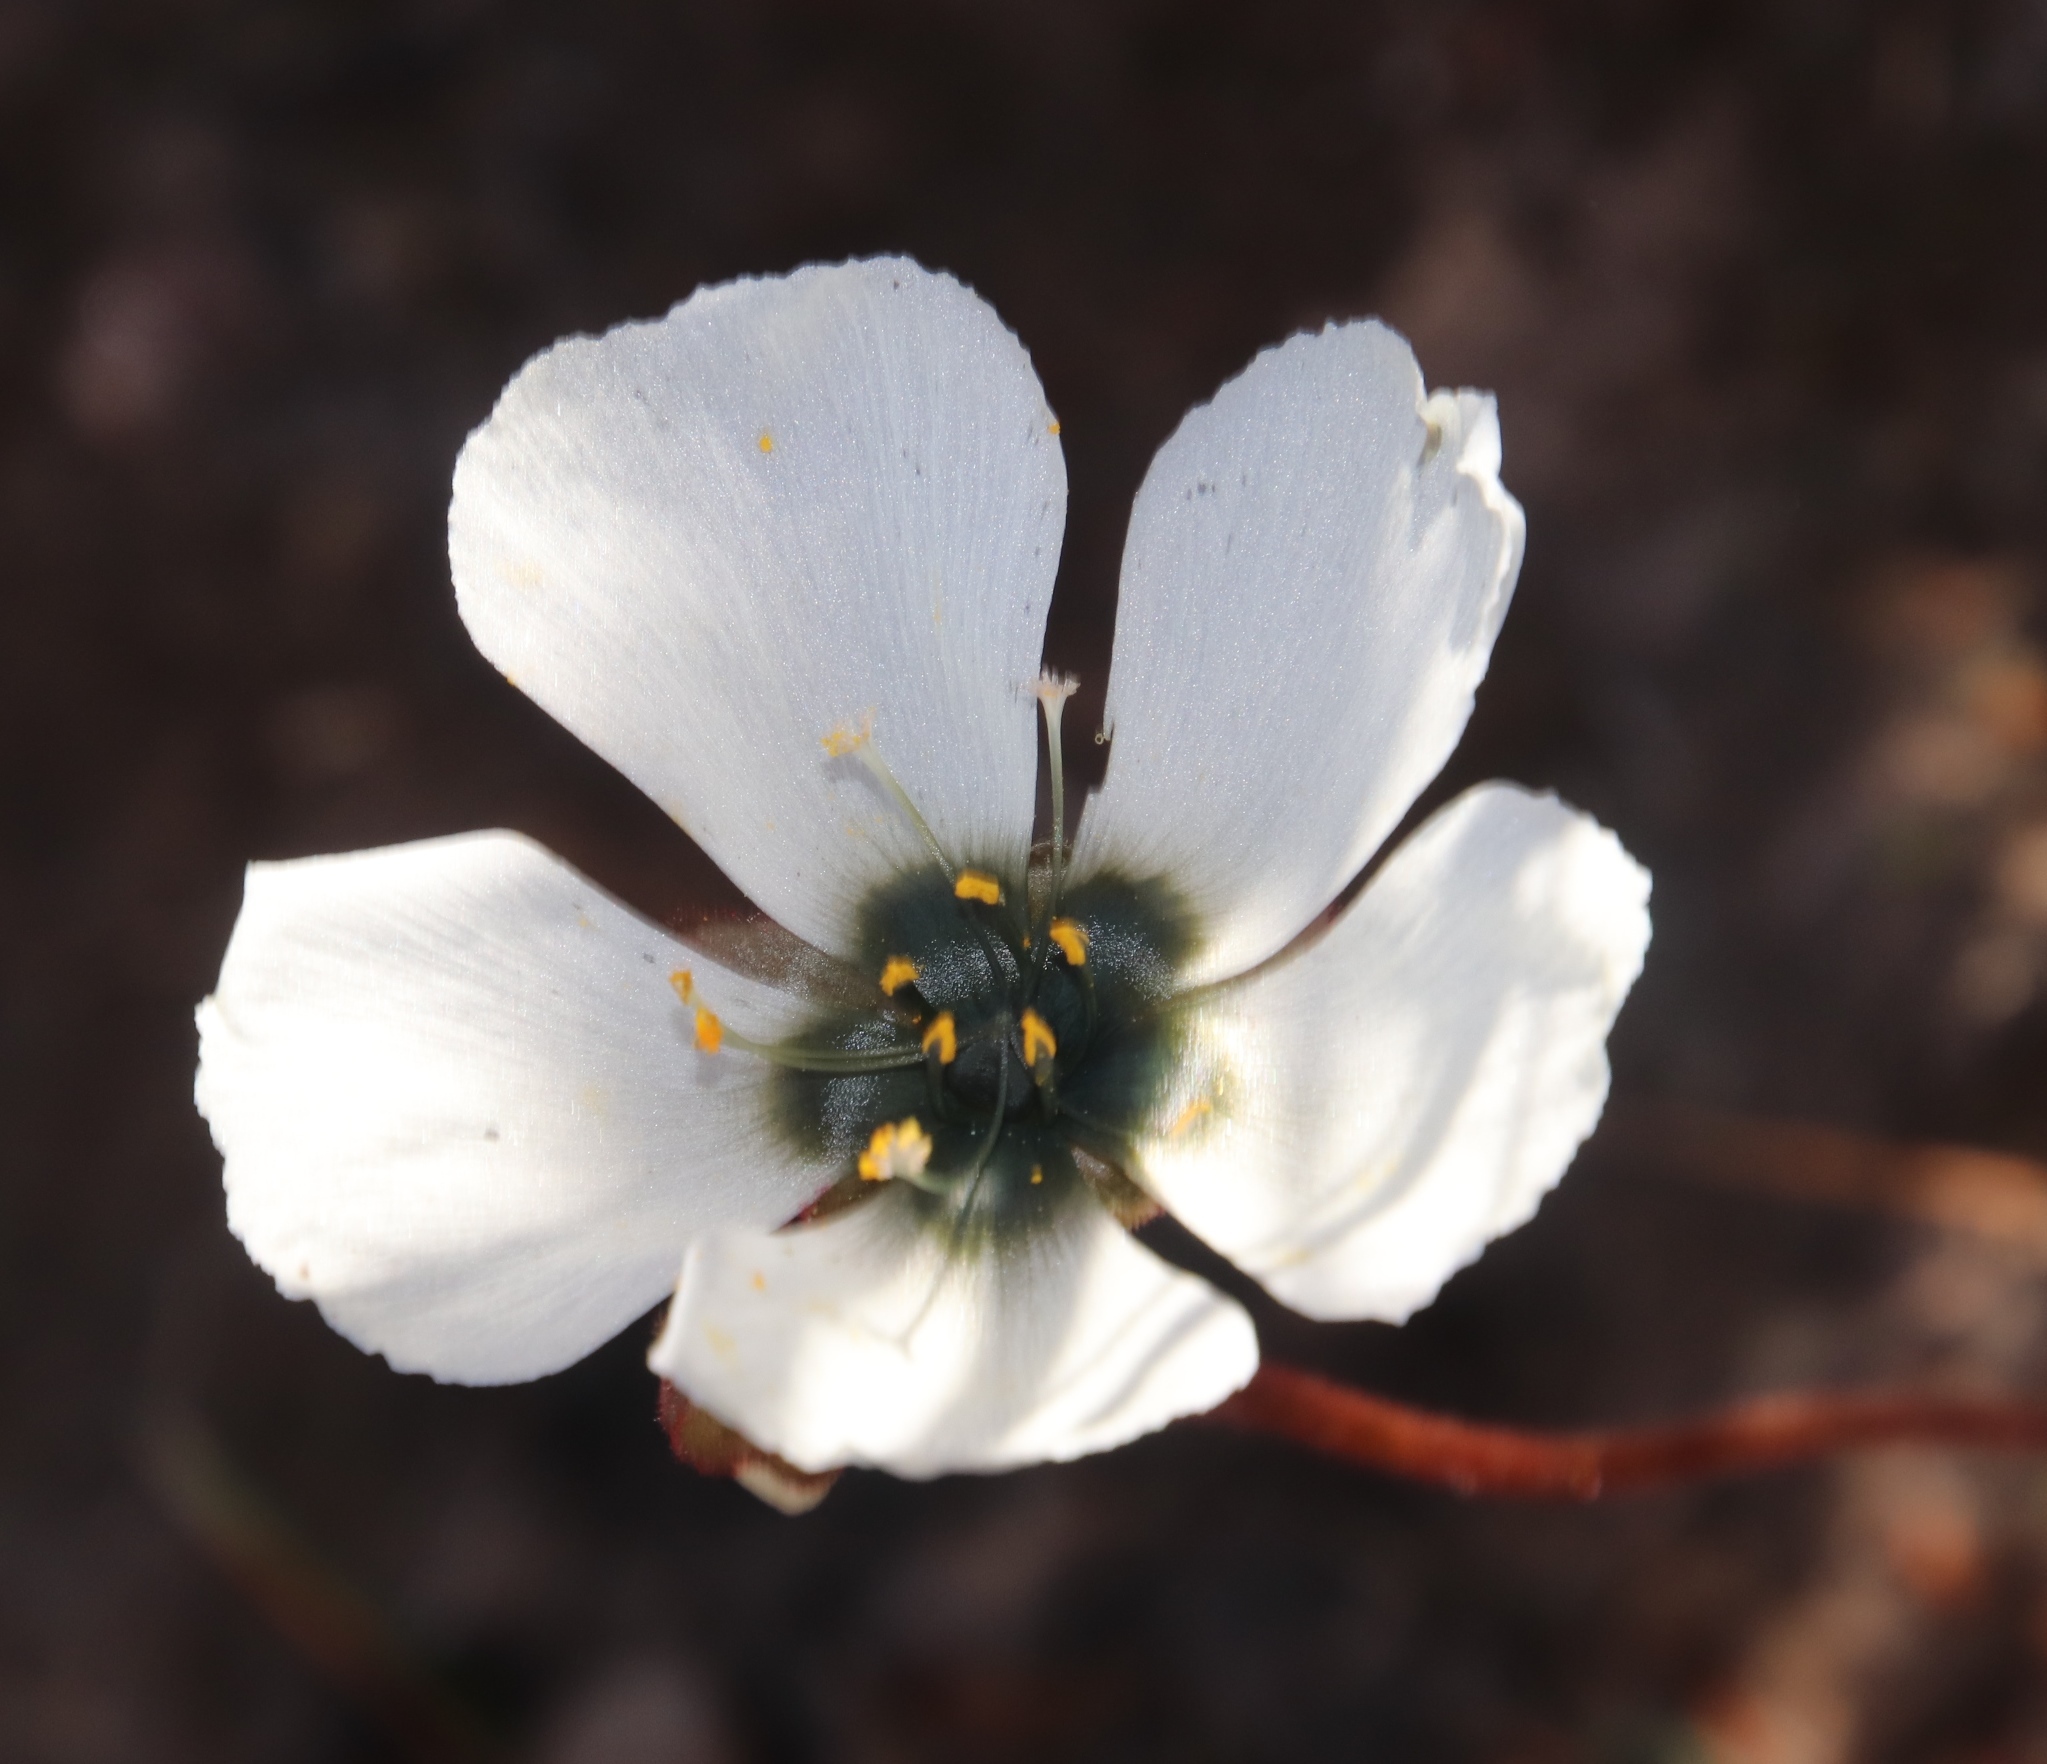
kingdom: Plantae
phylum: Tracheophyta
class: Magnoliopsida
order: Caryophyllales
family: Droseraceae
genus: Drosera
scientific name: Drosera pauciflora
